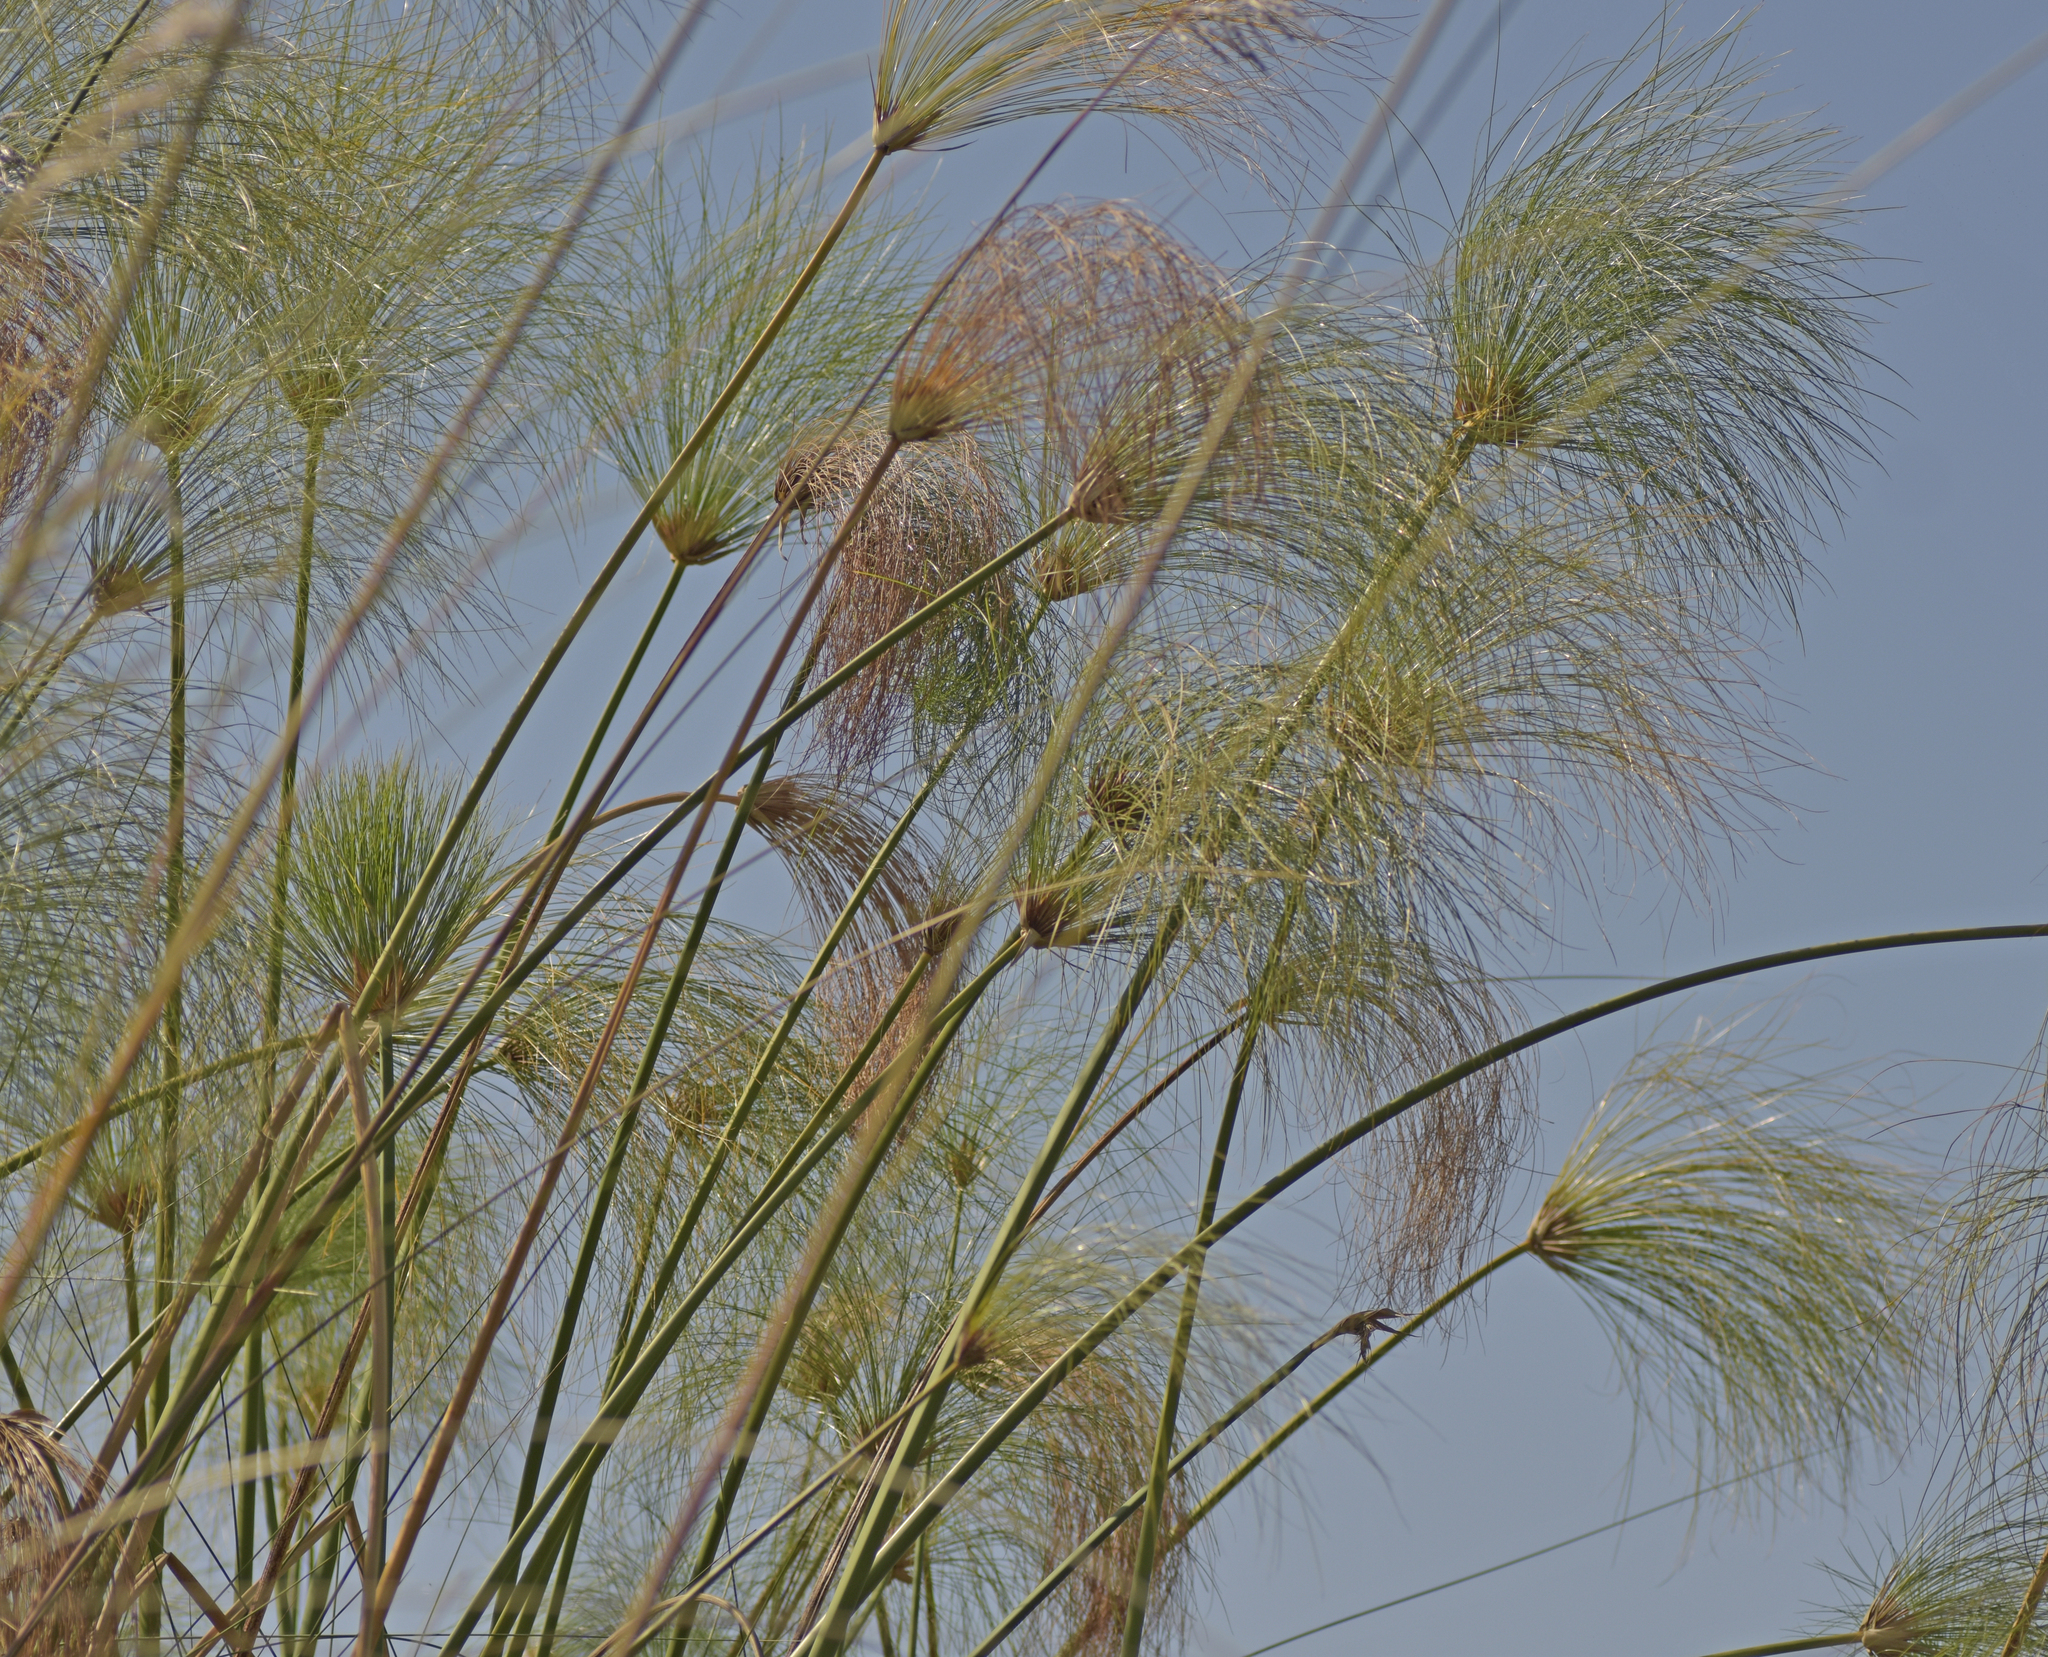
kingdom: Plantae
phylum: Tracheophyta
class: Liliopsida
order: Poales
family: Cyperaceae
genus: Cyperus
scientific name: Cyperus papyrus
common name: Papyrus
